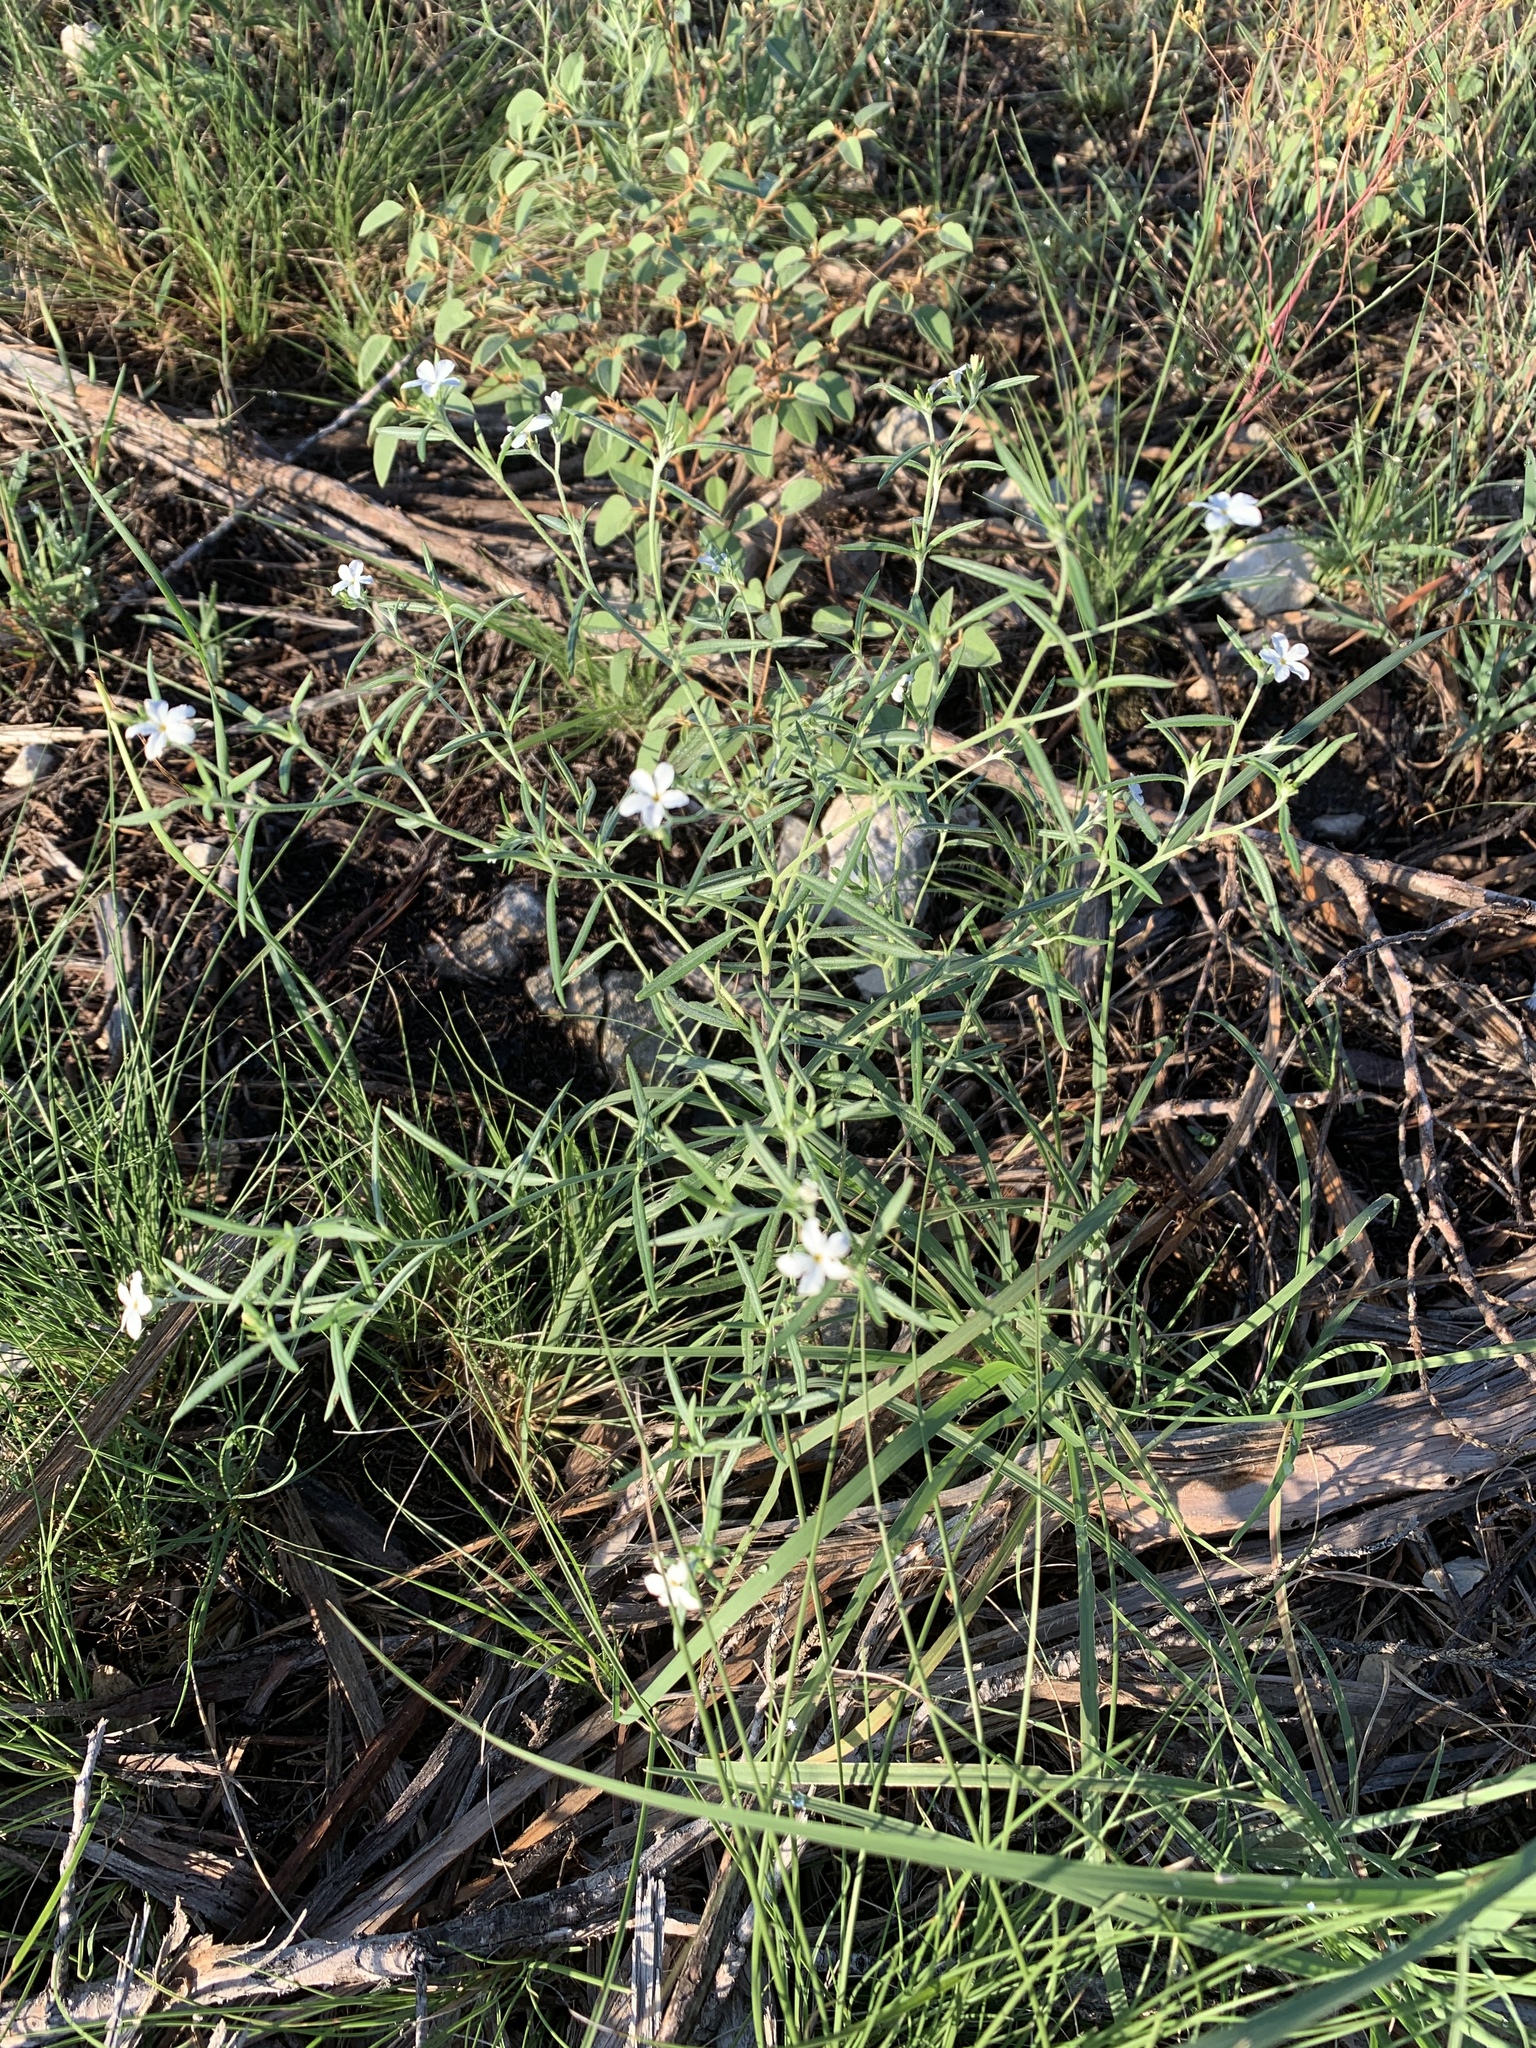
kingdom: Plantae
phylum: Tracheophyta
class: Magnoliopsida
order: Boraginales
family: Heliotropiaceae
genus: Euploca
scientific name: Euploca tenella
